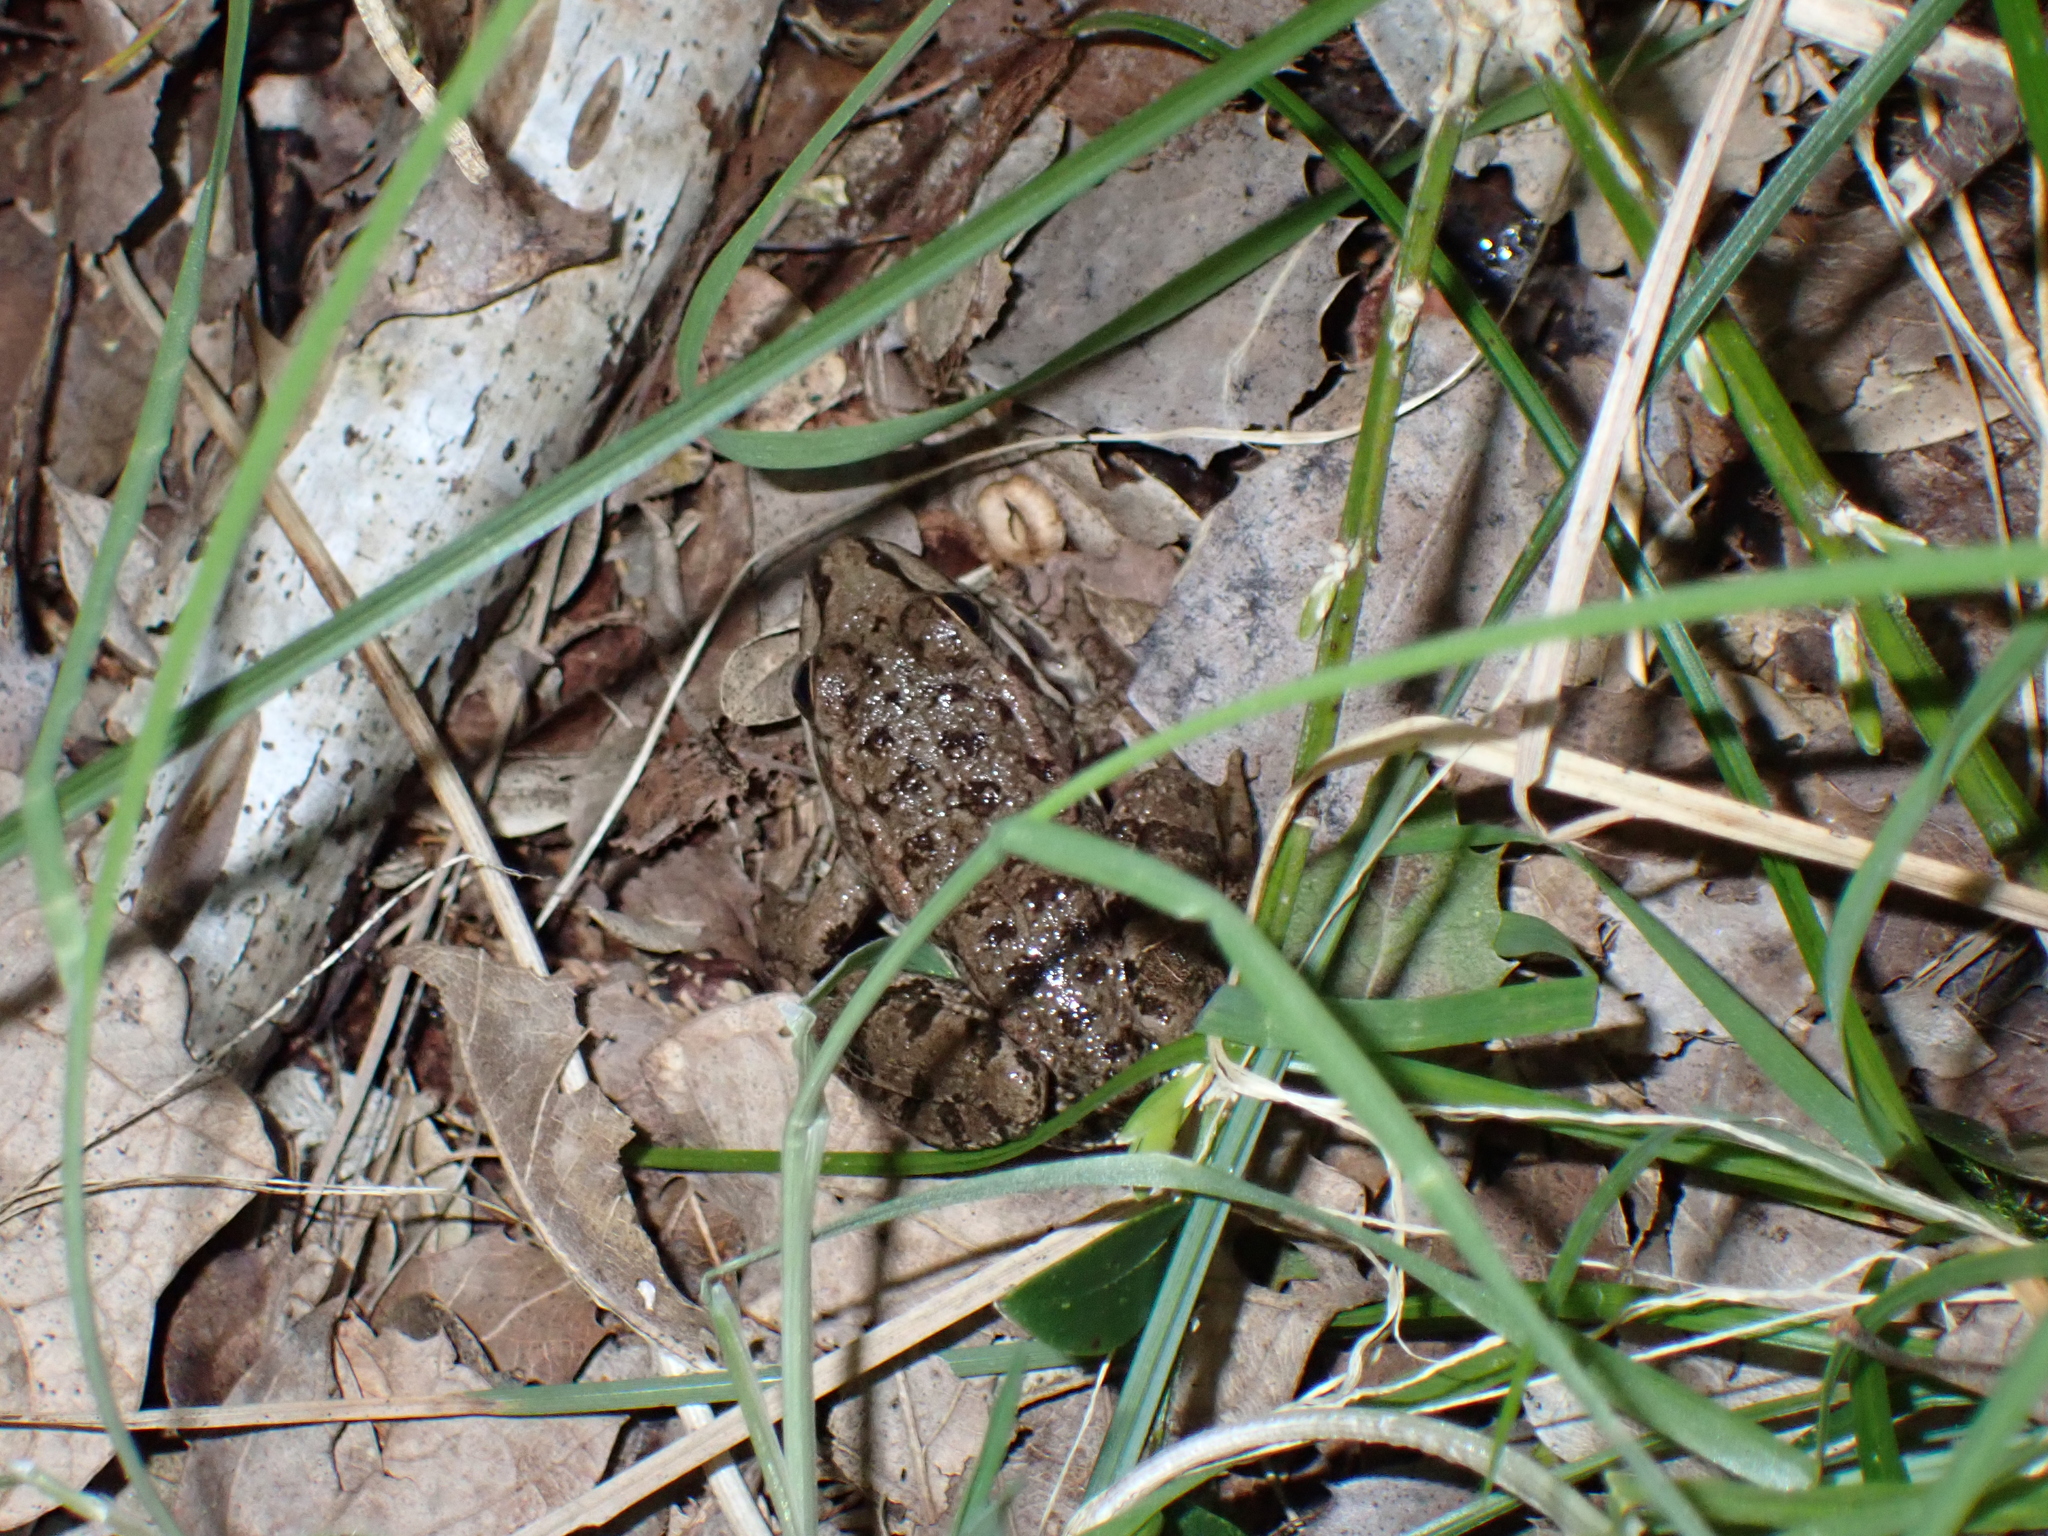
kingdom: Animalia
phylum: Chordata
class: Amphibia
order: Anura
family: Ranidae
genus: Pelophylax
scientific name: Pelophylax perezi
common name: Perez's frog
